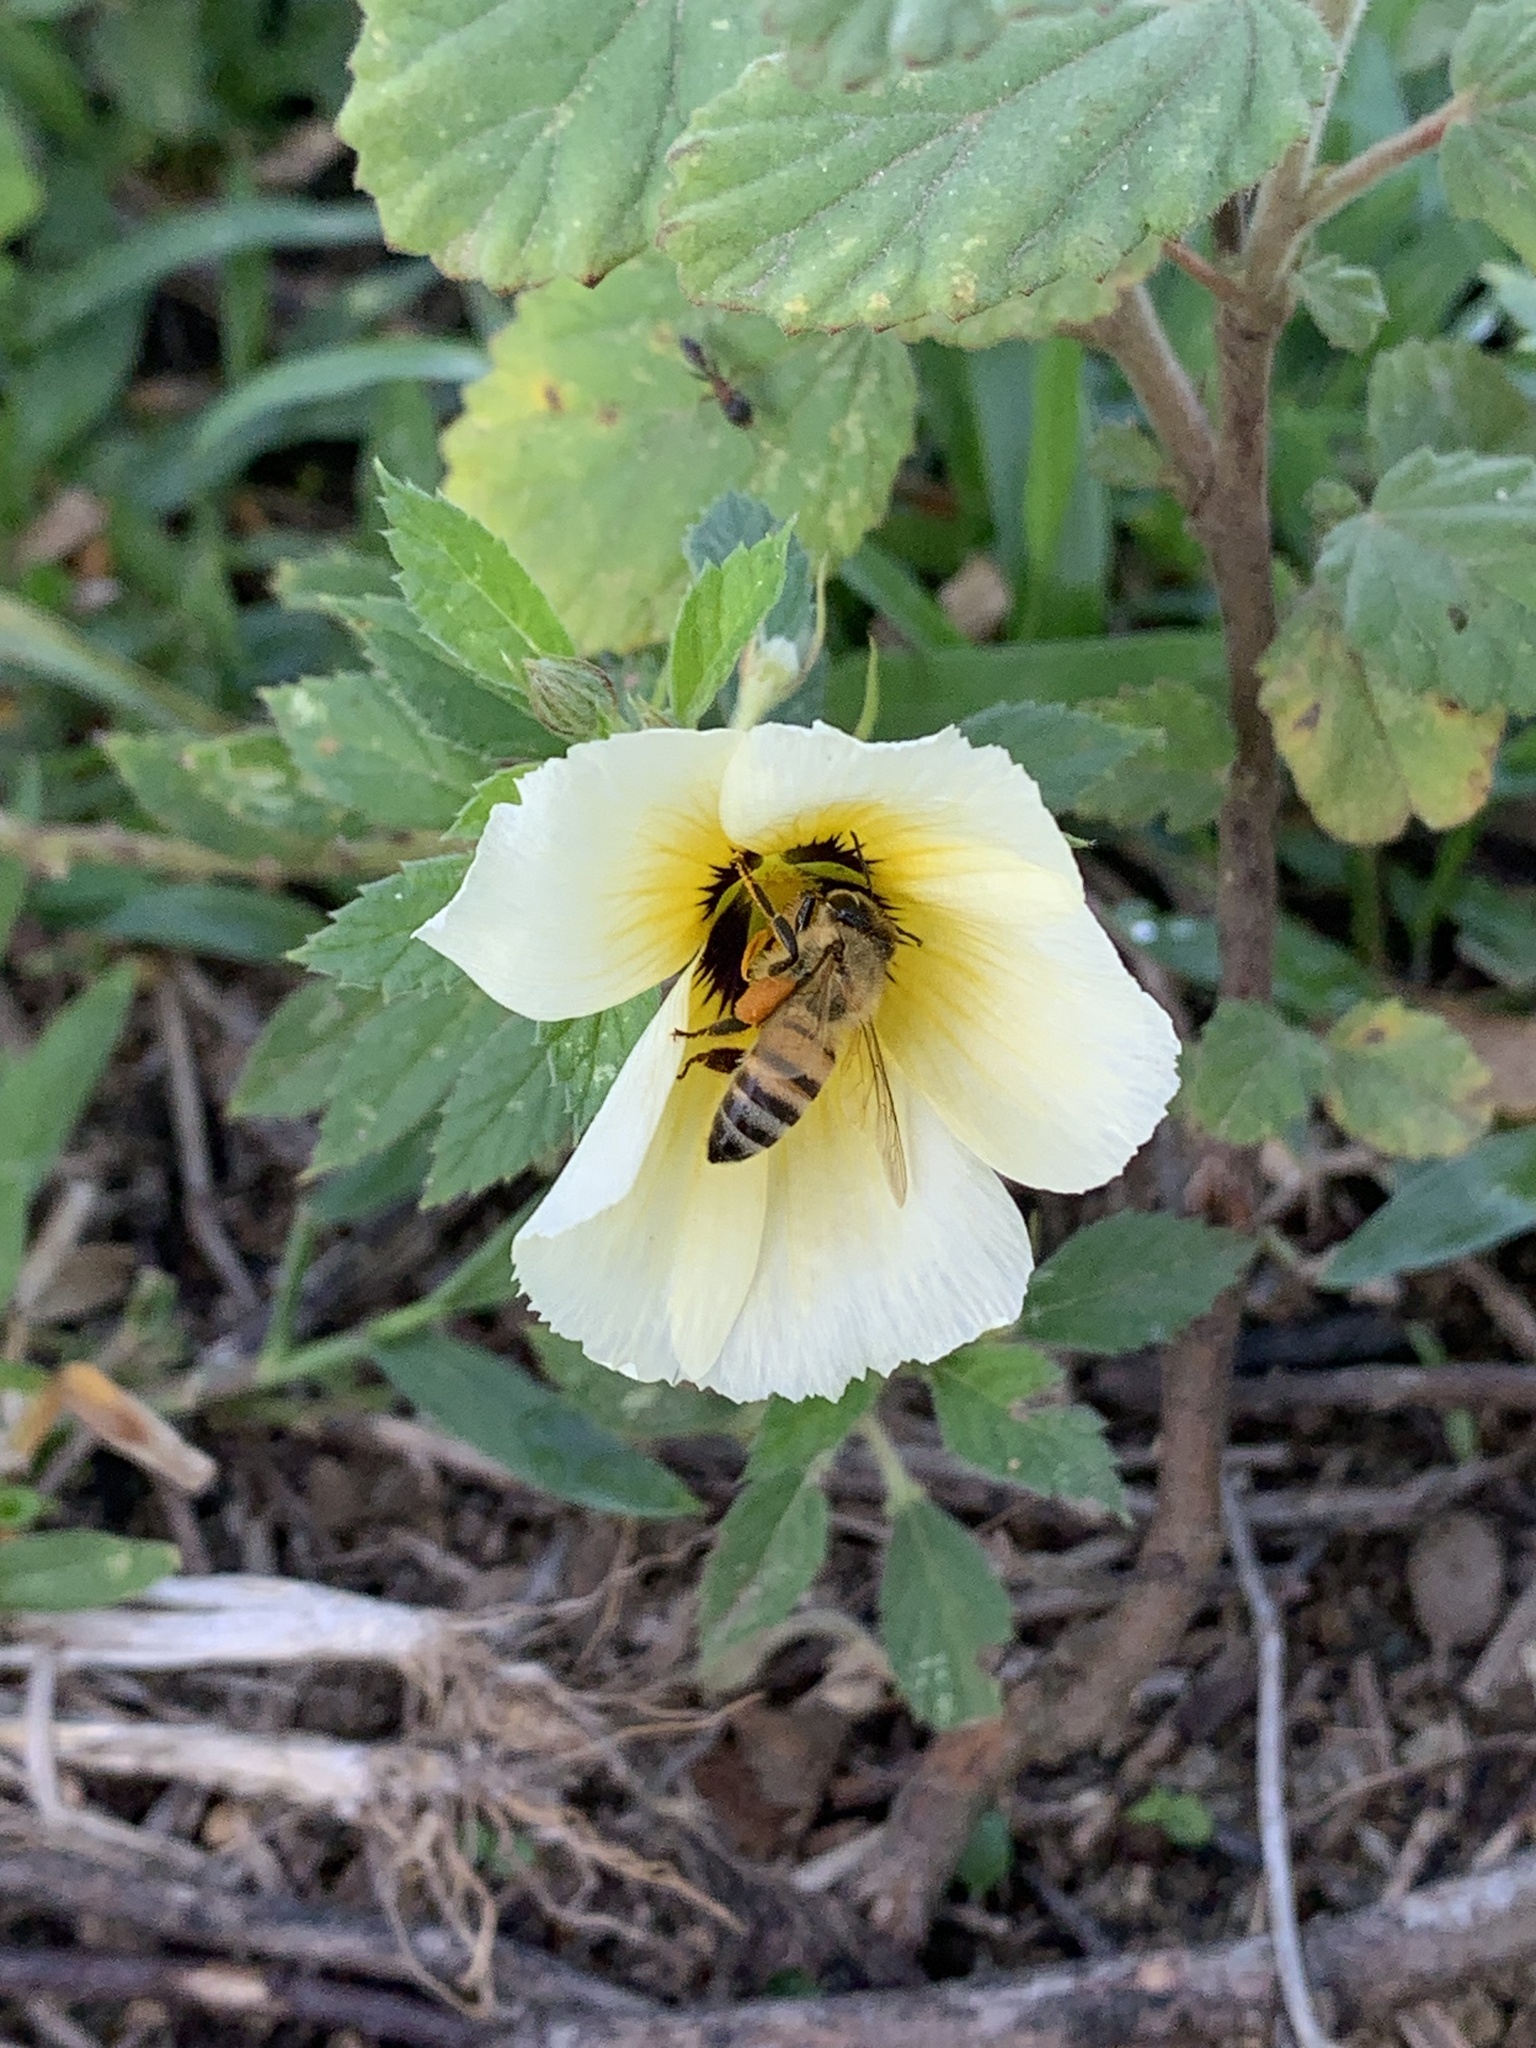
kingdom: Animalia
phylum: Arthropoda
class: Insecta
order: Hymenoptera
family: Apidae
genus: Apis
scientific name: Apis mellifera
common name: Honey bee
